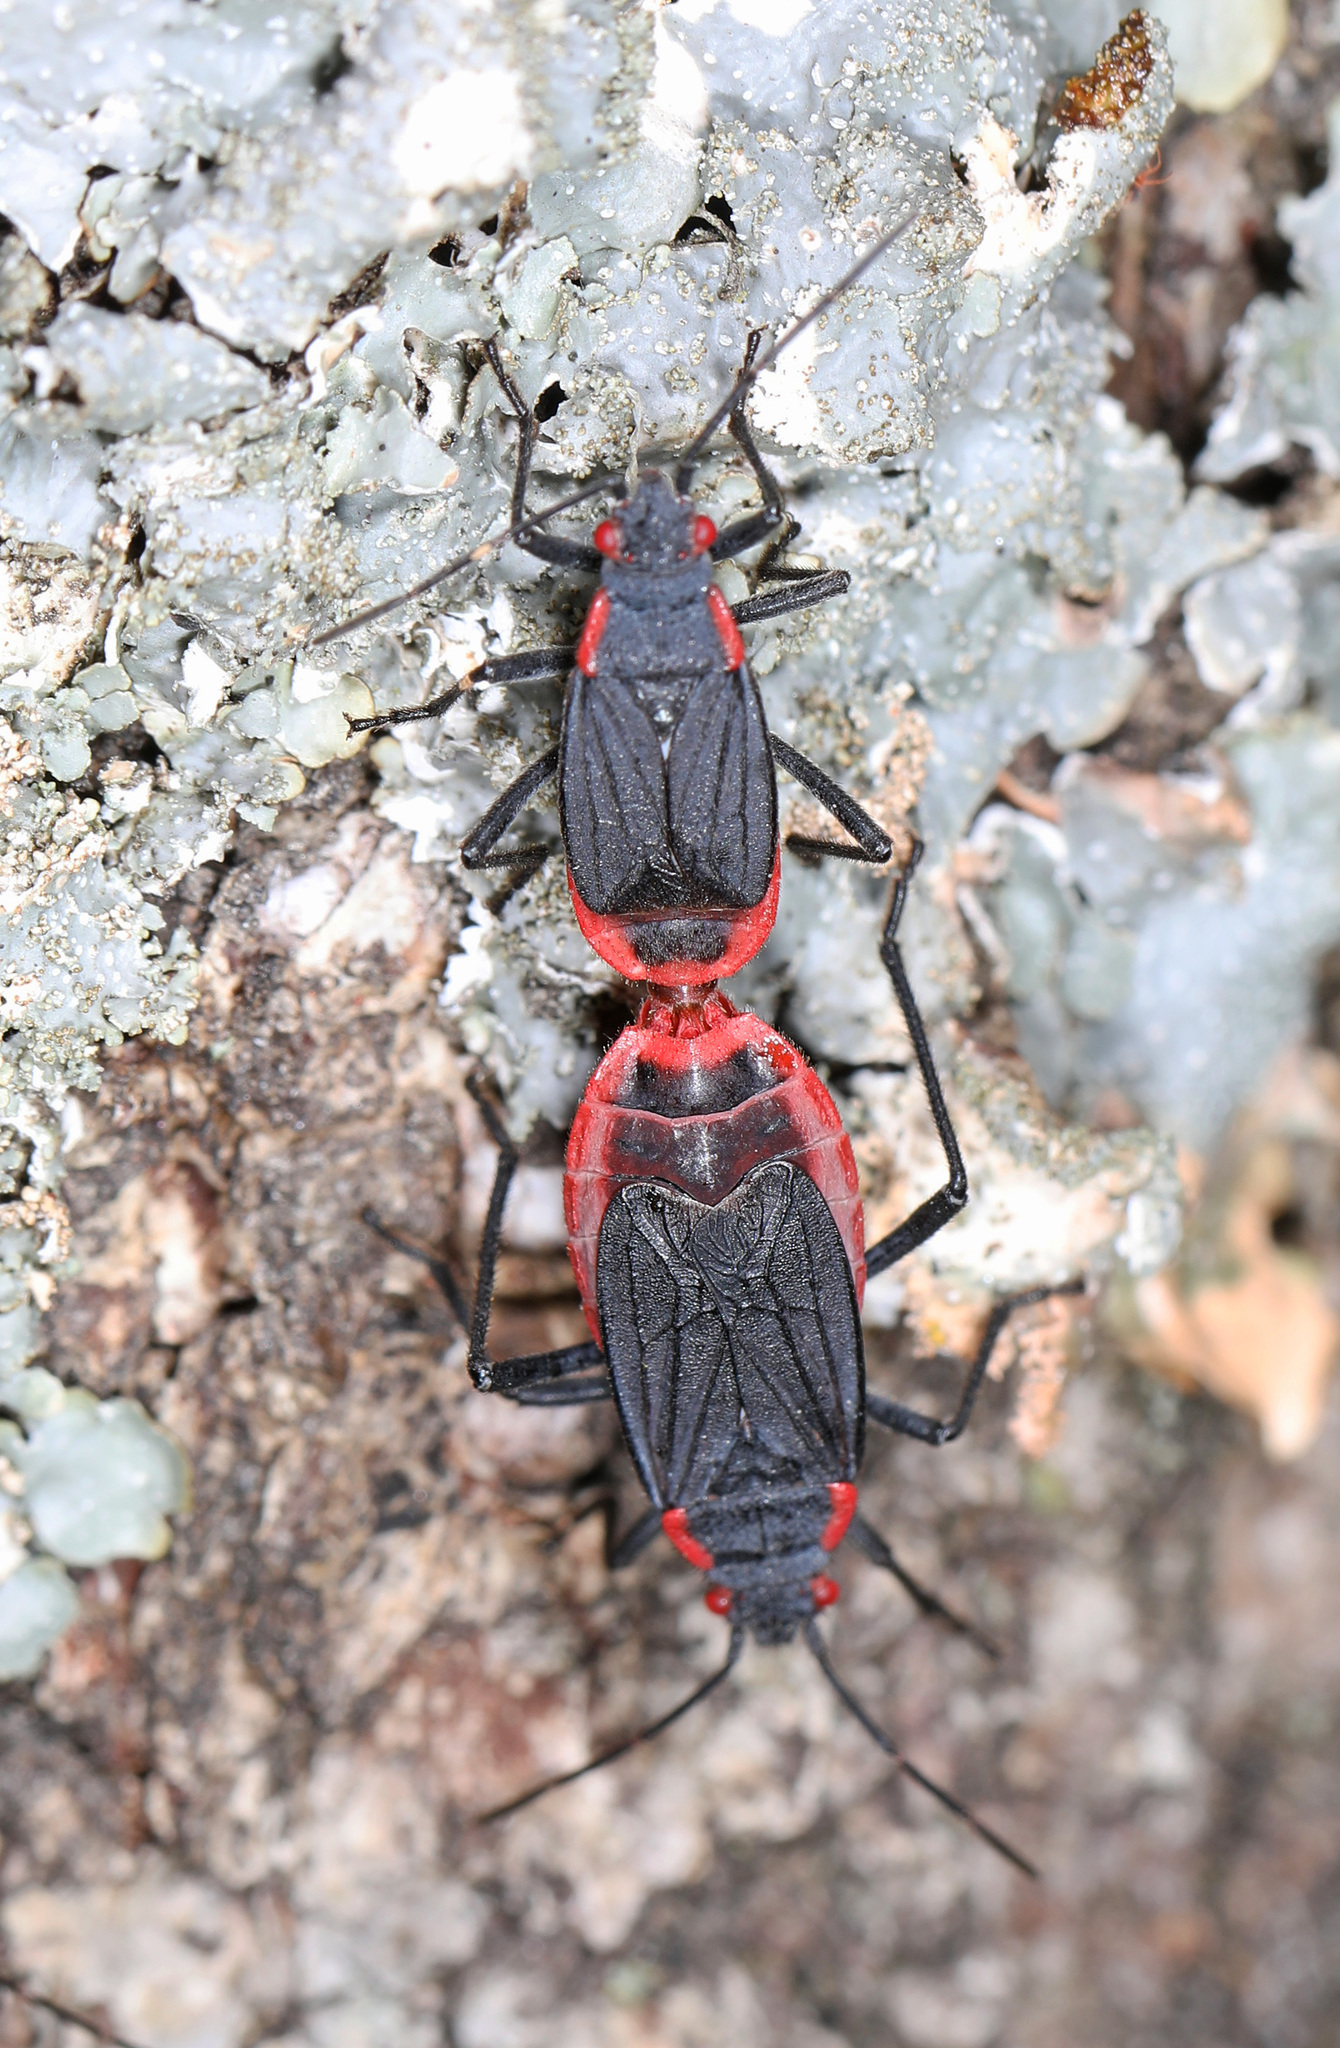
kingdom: Animalia
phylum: Arthropoda
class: Insecta
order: Hemiptera
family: Rhopalidae
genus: Jadera
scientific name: Jadera haematoloma
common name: Red-shouldered bug
